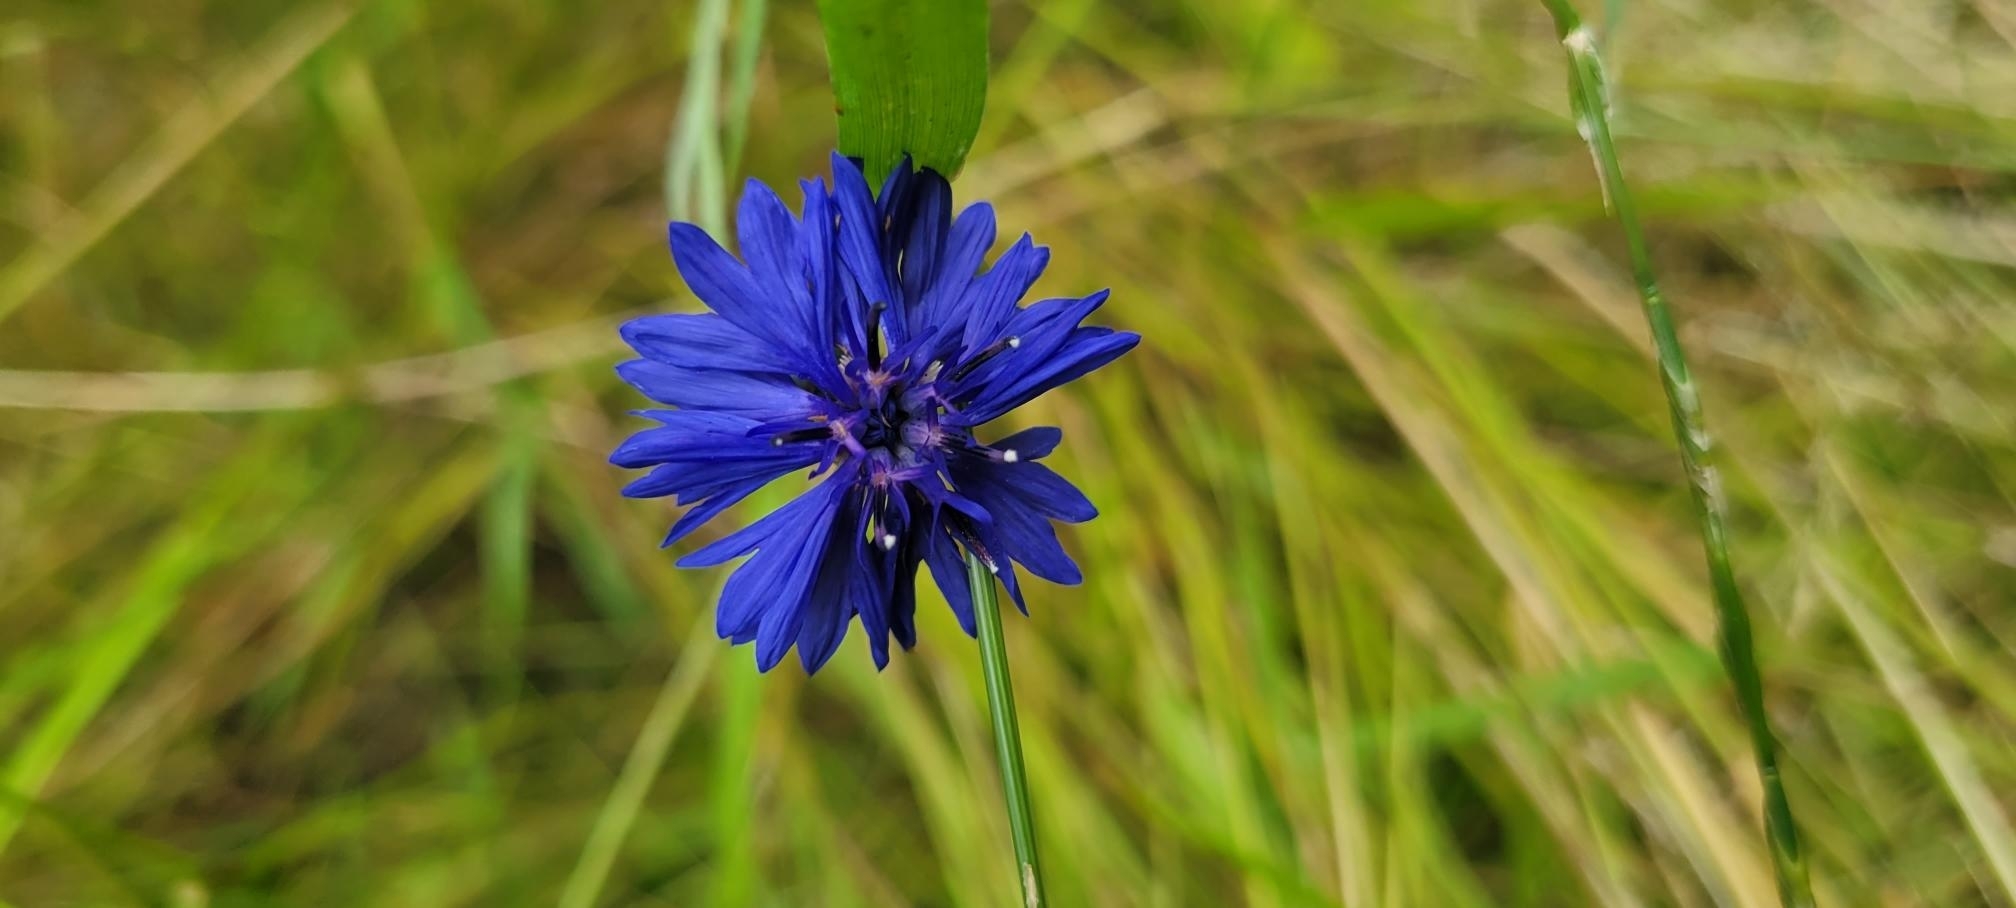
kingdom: Plantae
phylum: Tracheophyta
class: Magnoliopsida
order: Asterales
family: Asteraceae
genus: Centaurea
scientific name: Centaurea cyanus
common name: Cornflower
